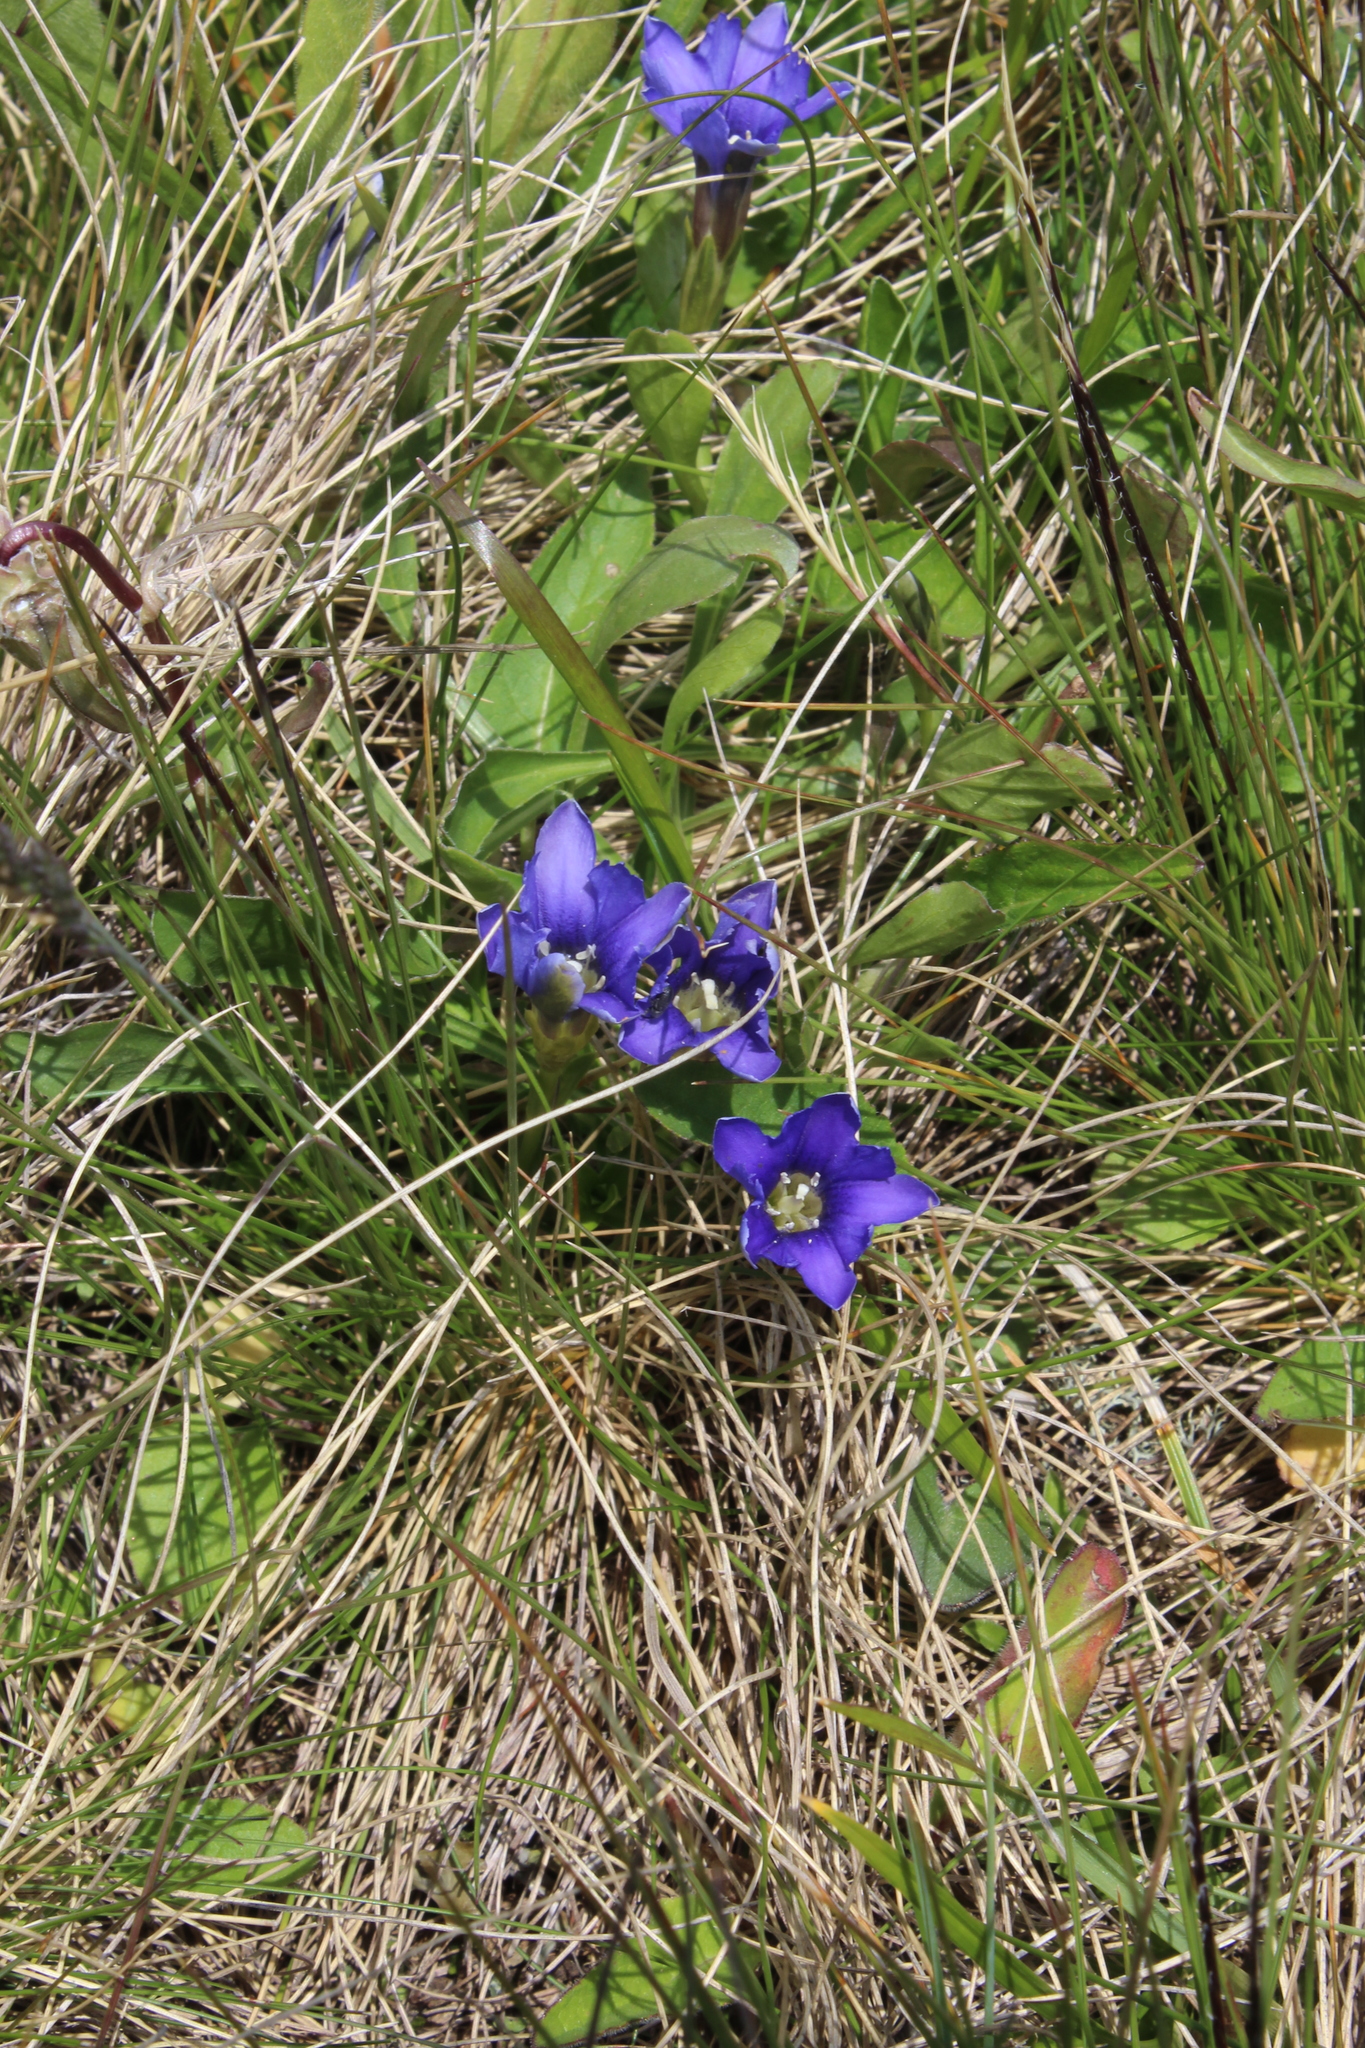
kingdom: Plantae
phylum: Tracheophyta
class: Magnoliopsida
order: Gentianales
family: Gentianaceae
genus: Gentiana
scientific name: Gentiana dshimilensis
